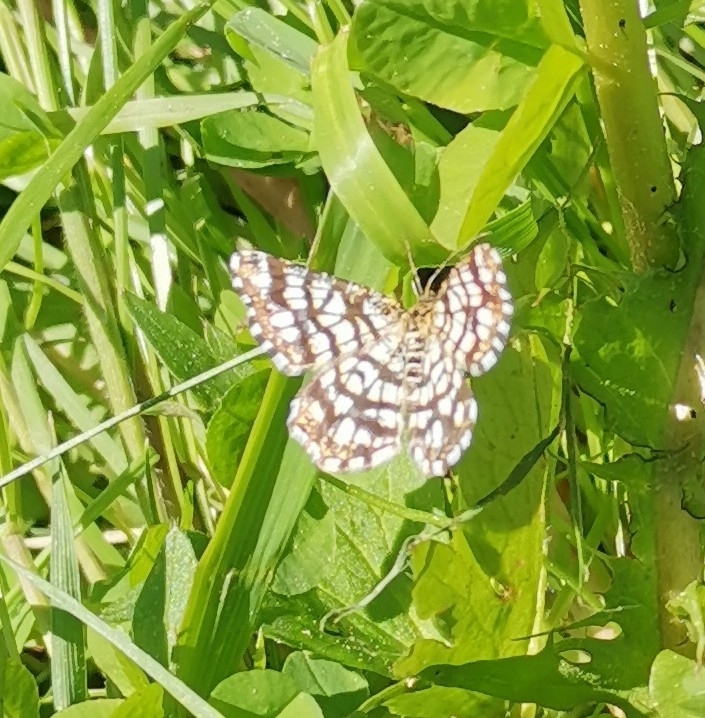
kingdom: Animalia
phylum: Arthropoda
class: Insecta
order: Lepidoptera
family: Geometridae
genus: Chiasmia
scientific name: Chiasmia clathrata
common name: Latticed heath
